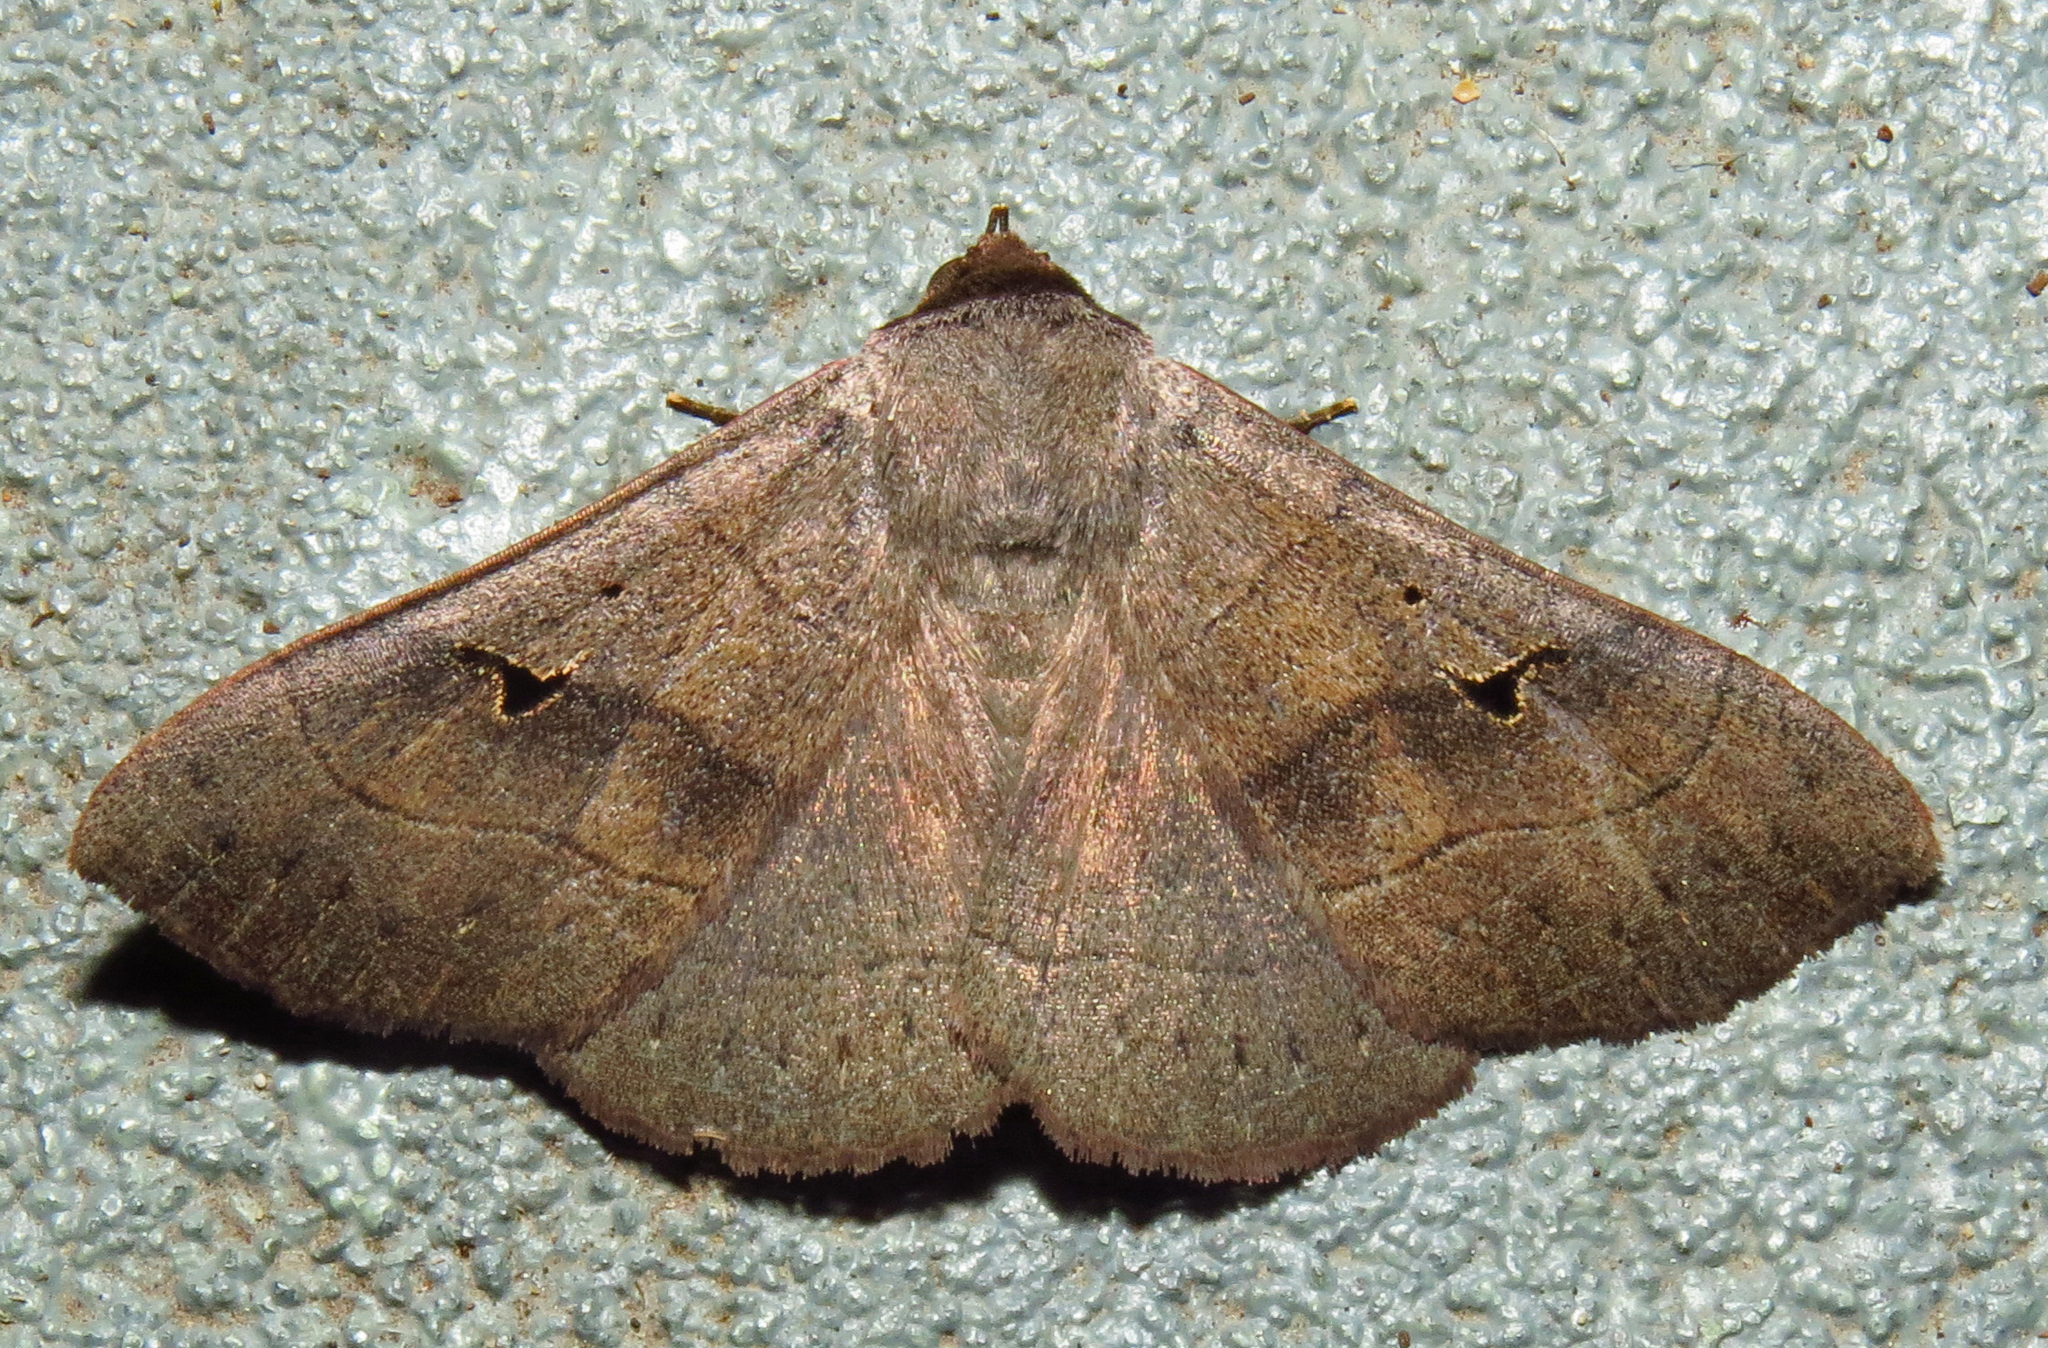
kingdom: Animalia
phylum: Arthropoda
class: Insecta
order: Lepidoptera
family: Erebidae
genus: Panopoda
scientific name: Panopoda carneicosta
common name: Brown panopoda moth
